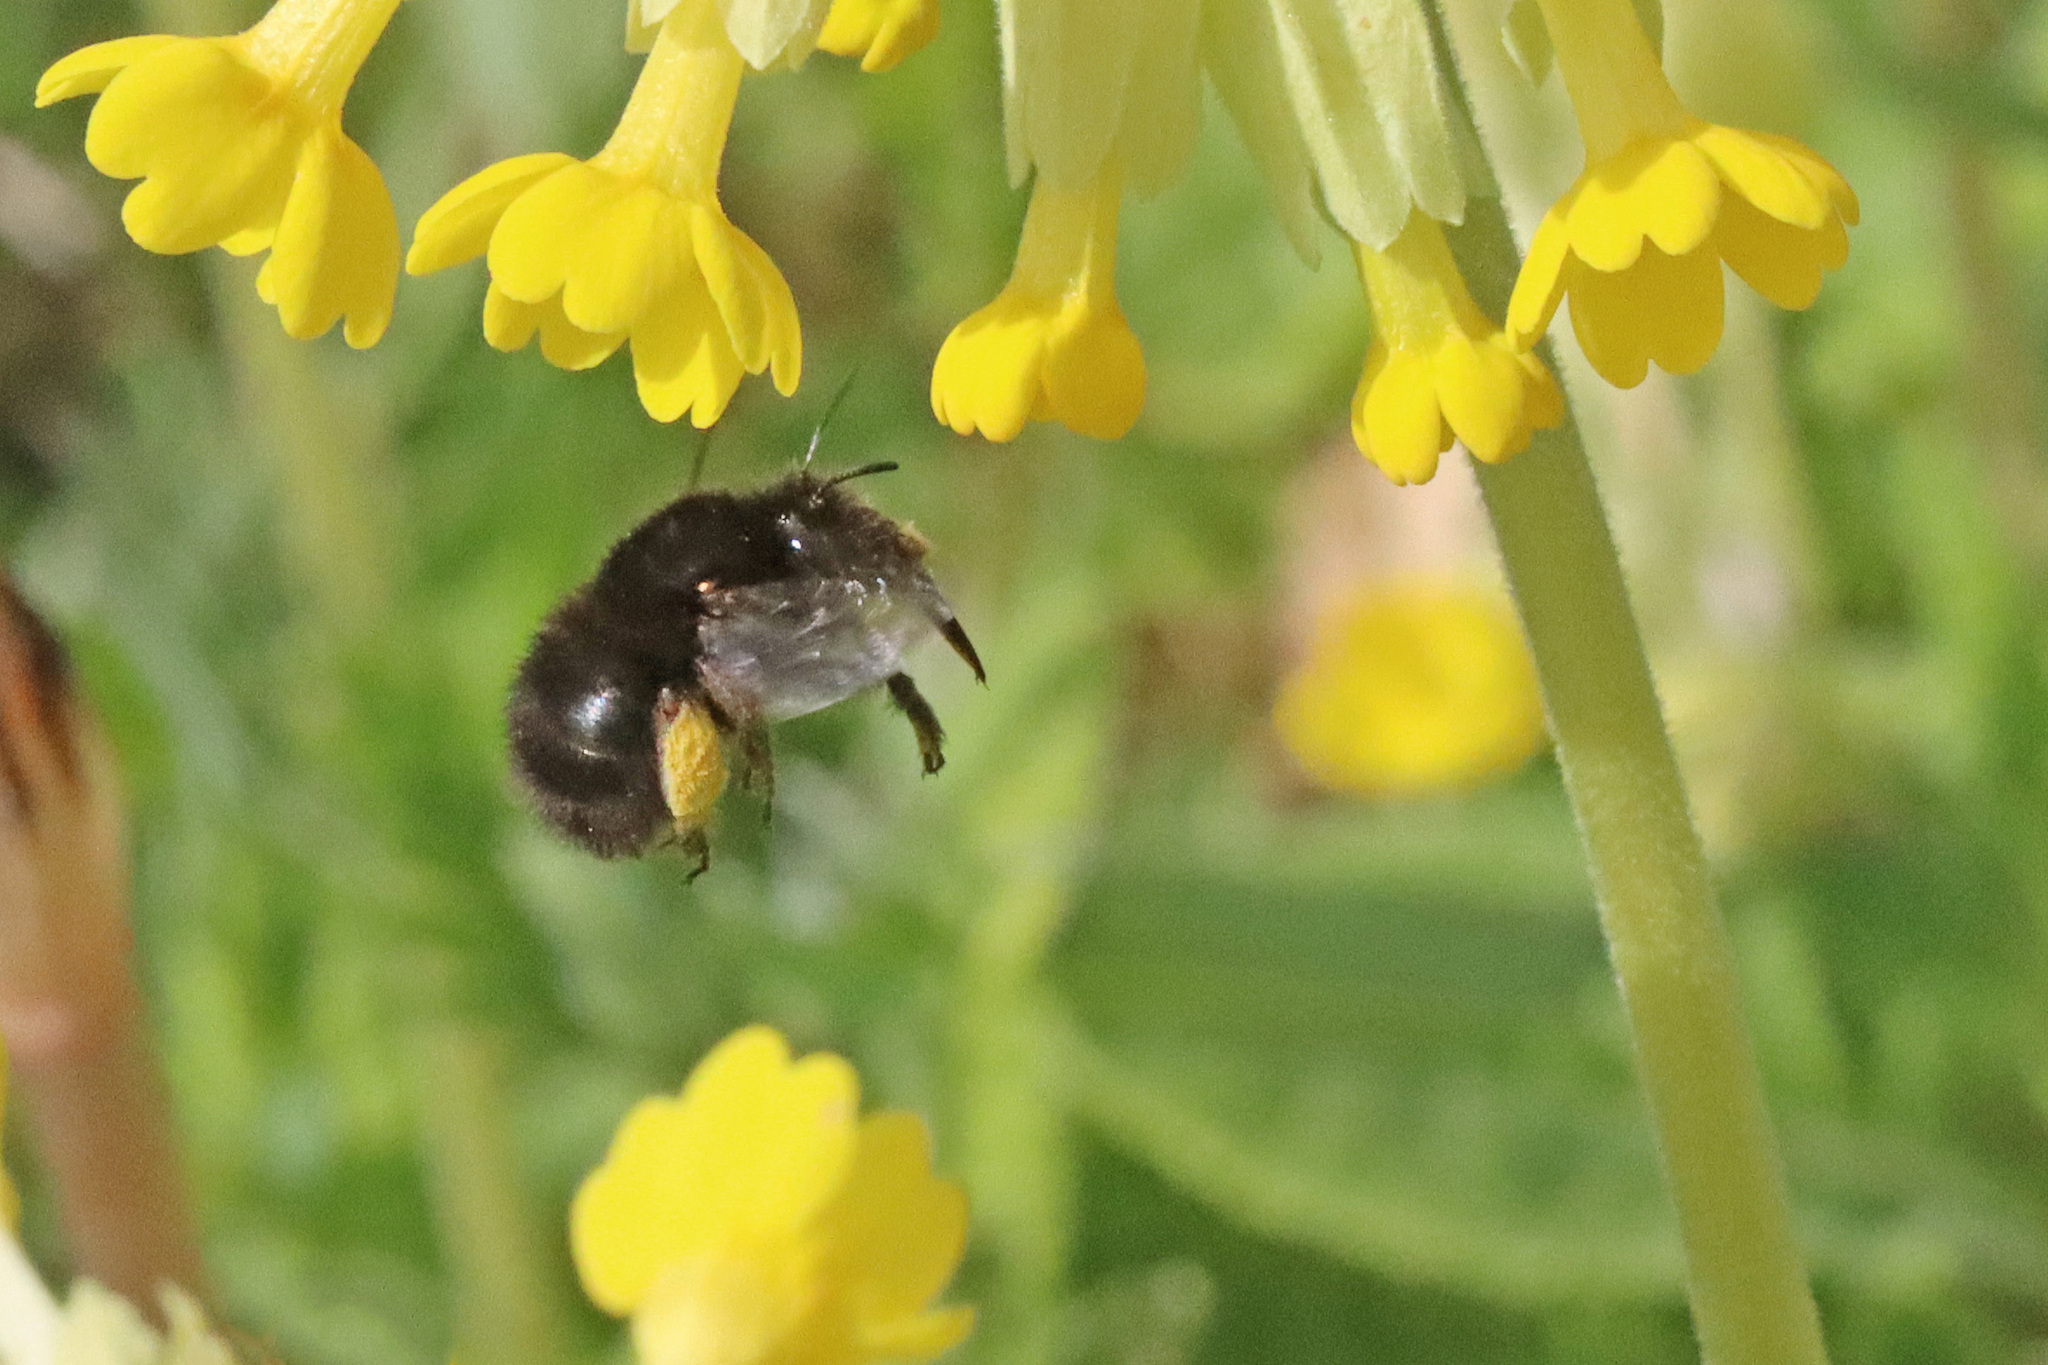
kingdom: Animalia
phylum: Arthropoda
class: Insecta
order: Hymenoptera
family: Apidae
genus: Anthophora
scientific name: Anthophora plumipes
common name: Hairy-footed flower bee
